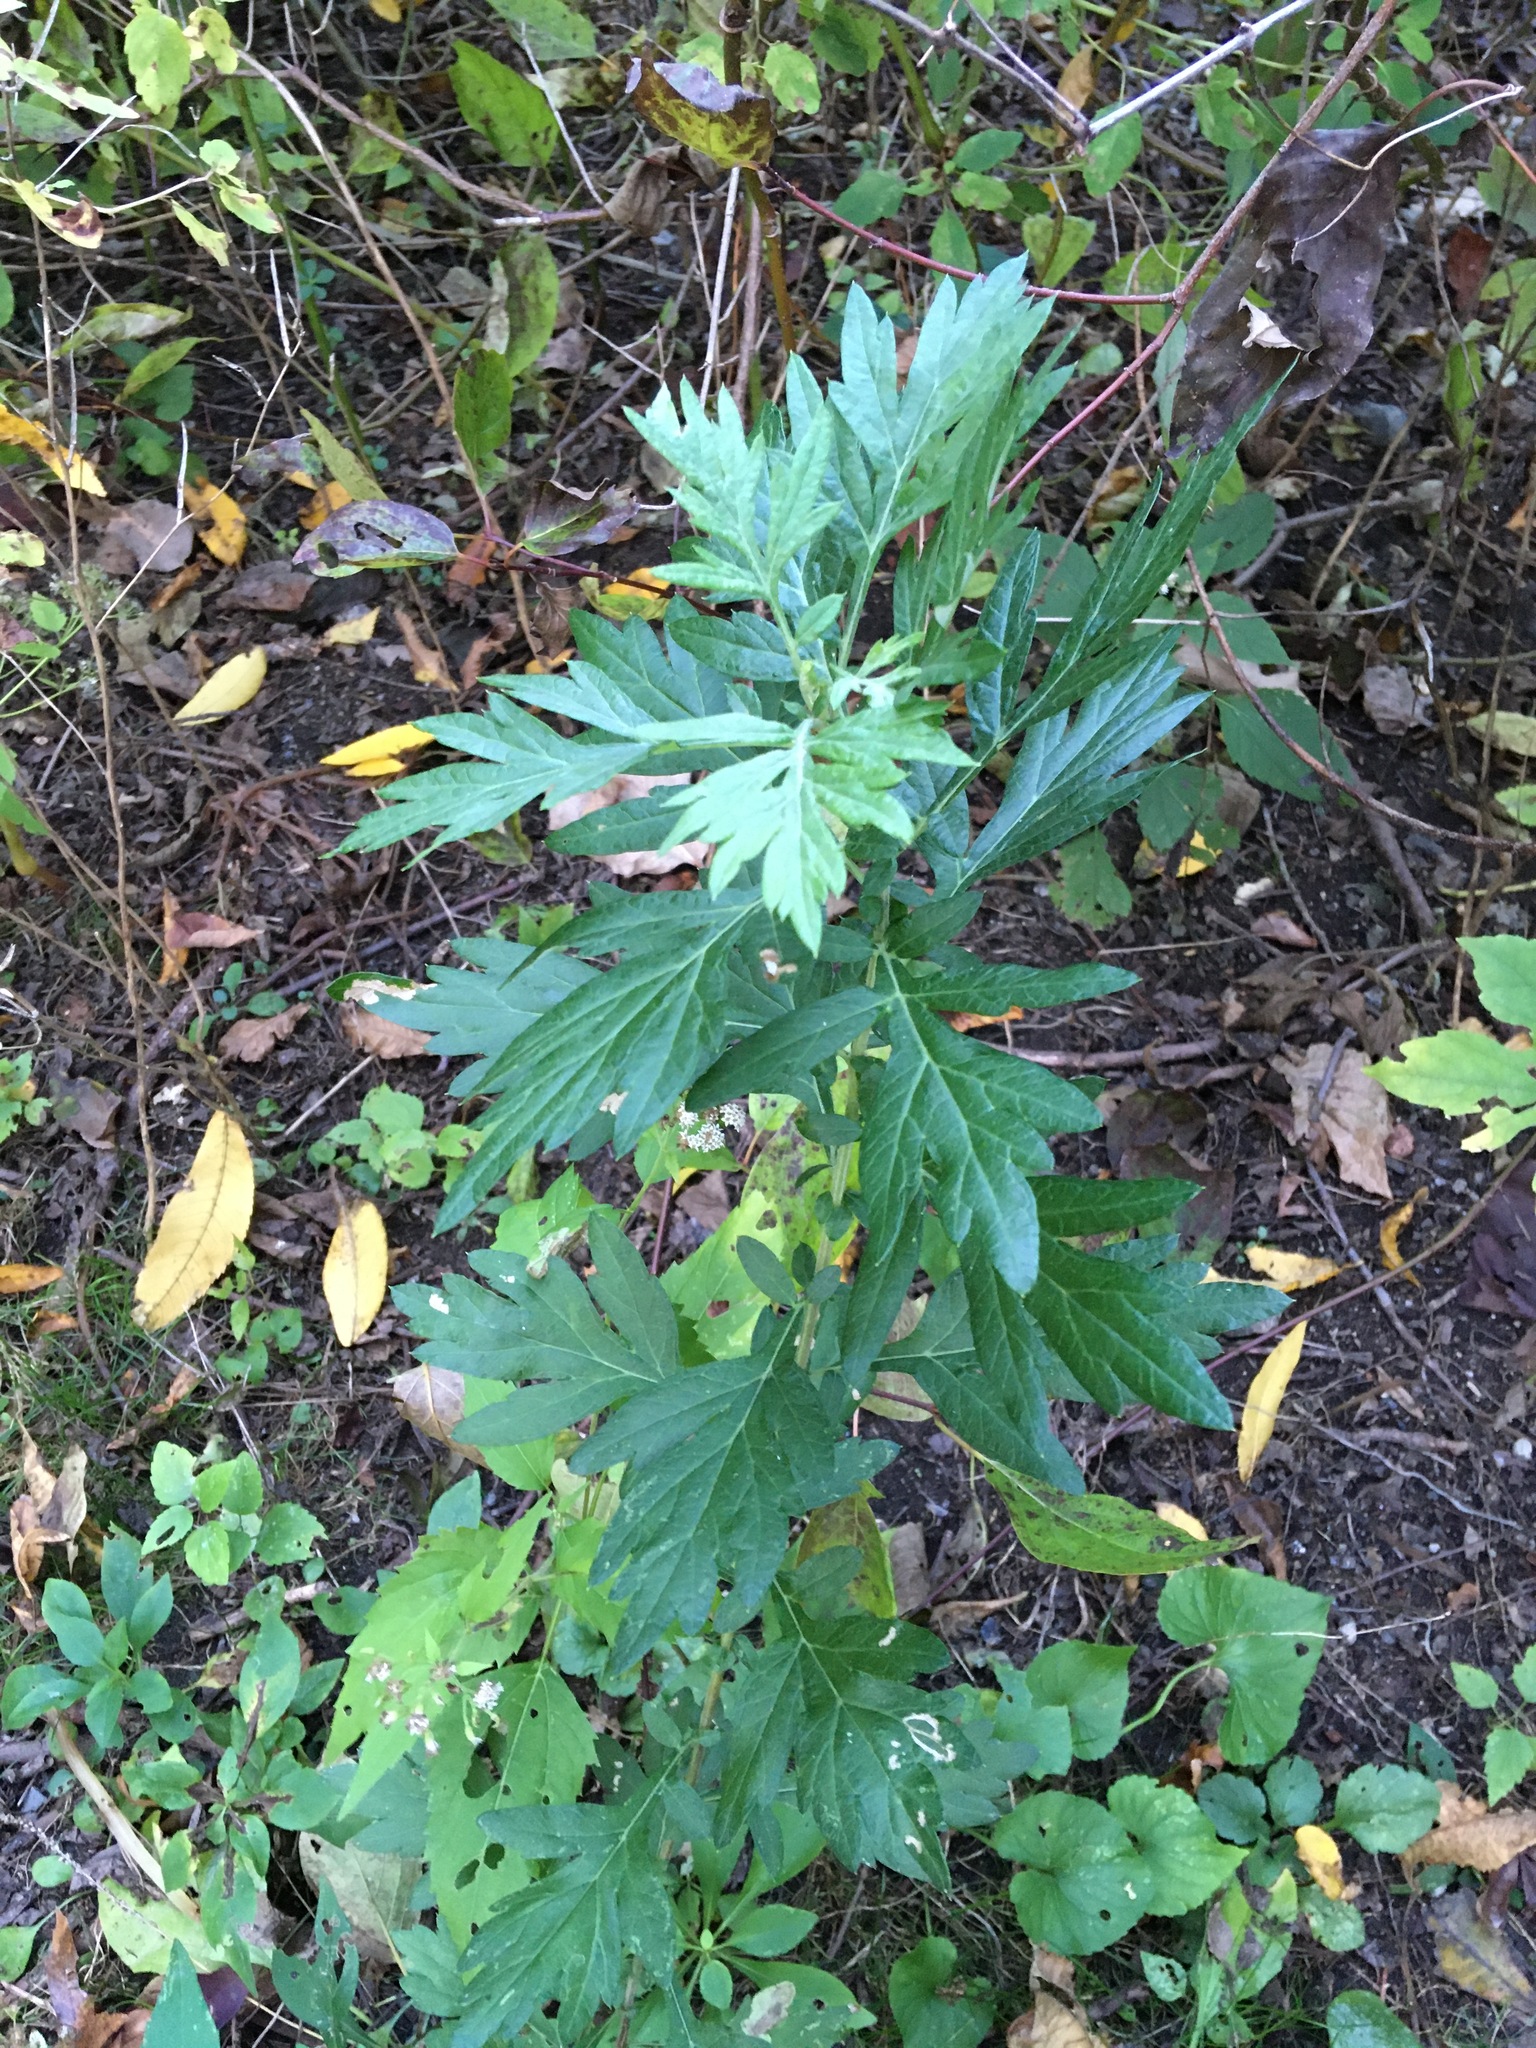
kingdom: Plantae
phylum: Tracheophyta
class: Magnoliopsida
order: Asterales
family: Asteraceae
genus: Artemisia
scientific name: Artemisia vulgaris
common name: Mugwort
